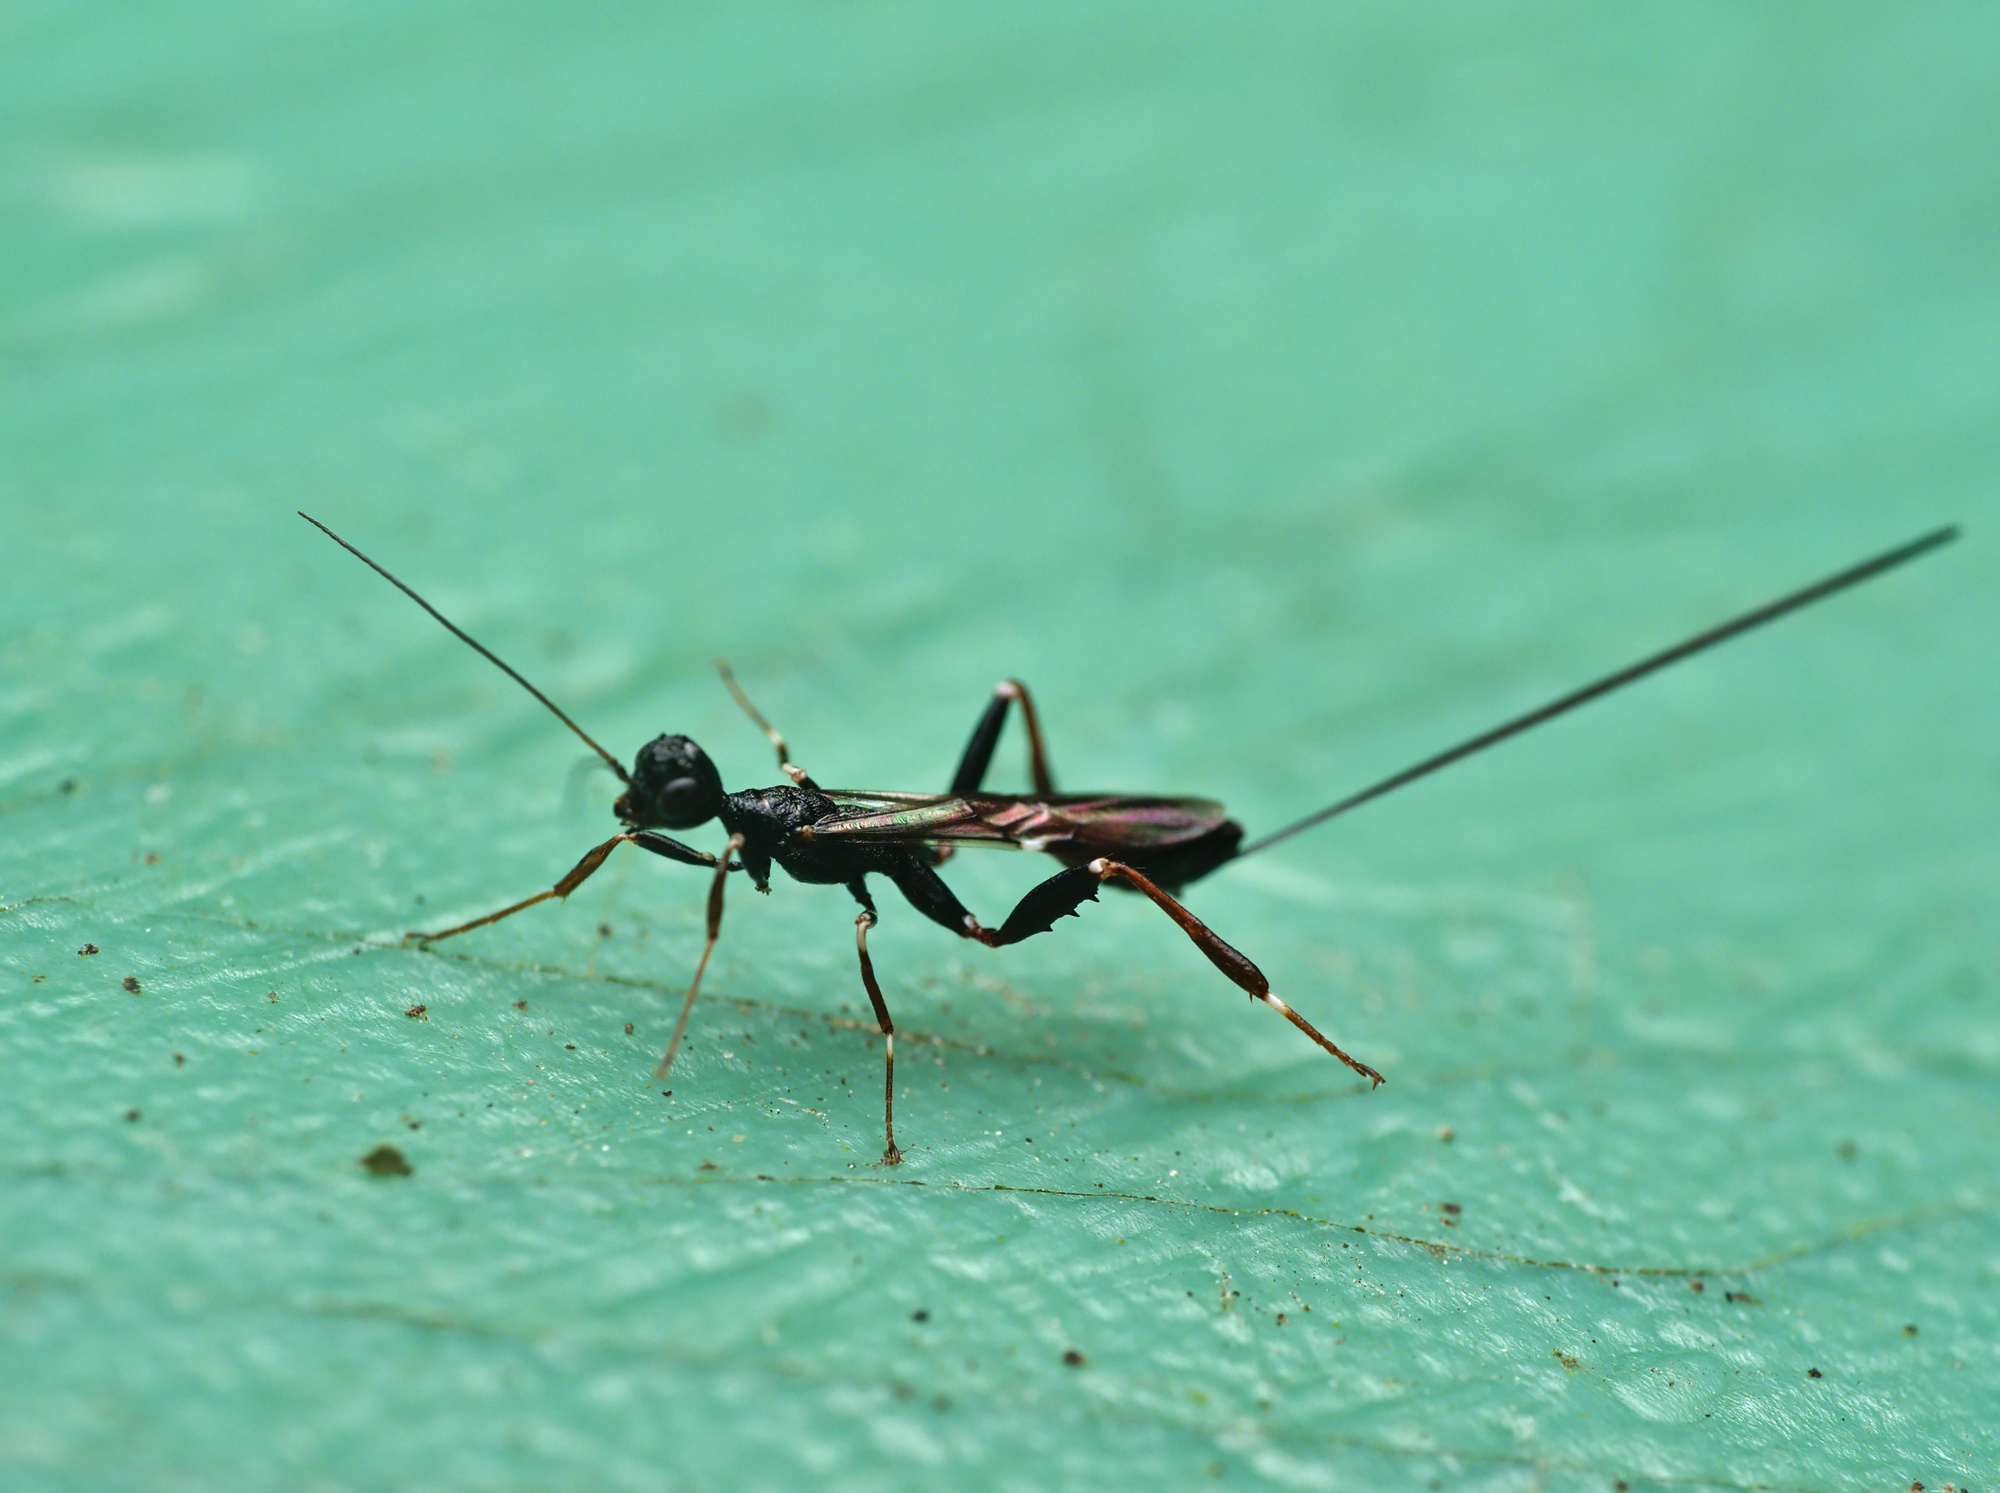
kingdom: Animalia
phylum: Arthropoda
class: Insecta
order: Hymenoptera
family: Stephanidae
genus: Stephanus
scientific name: Stephanus serrator
